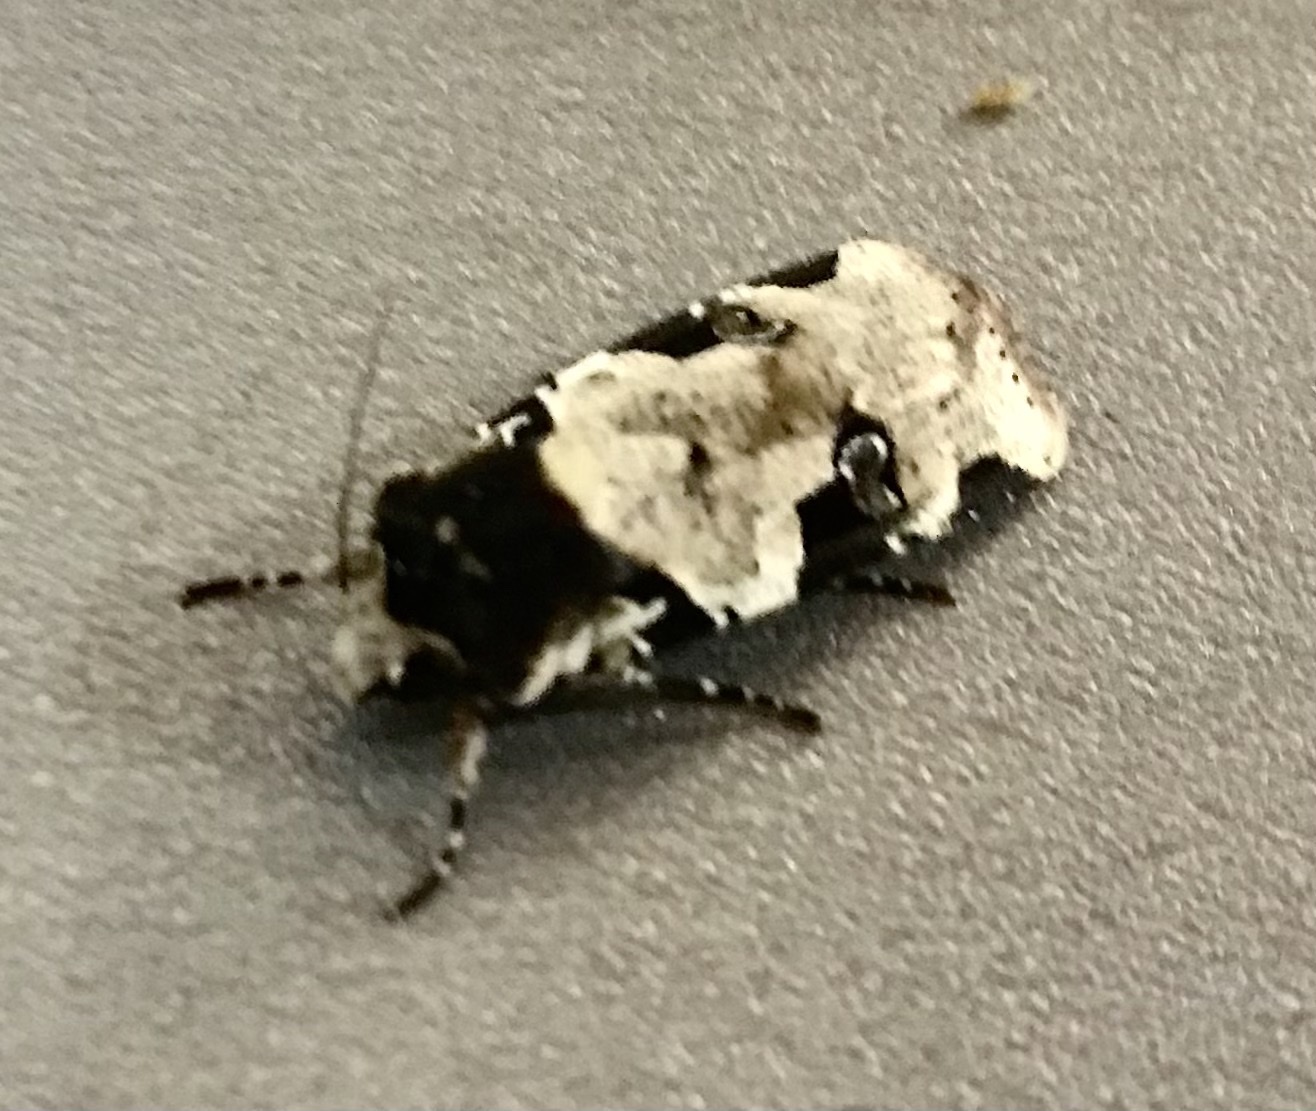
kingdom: Animalia
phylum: Arthropoda
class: Insecta
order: Lepidoptera
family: Noctuidae
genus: Mentaxya
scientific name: Mentaxya albifrons
